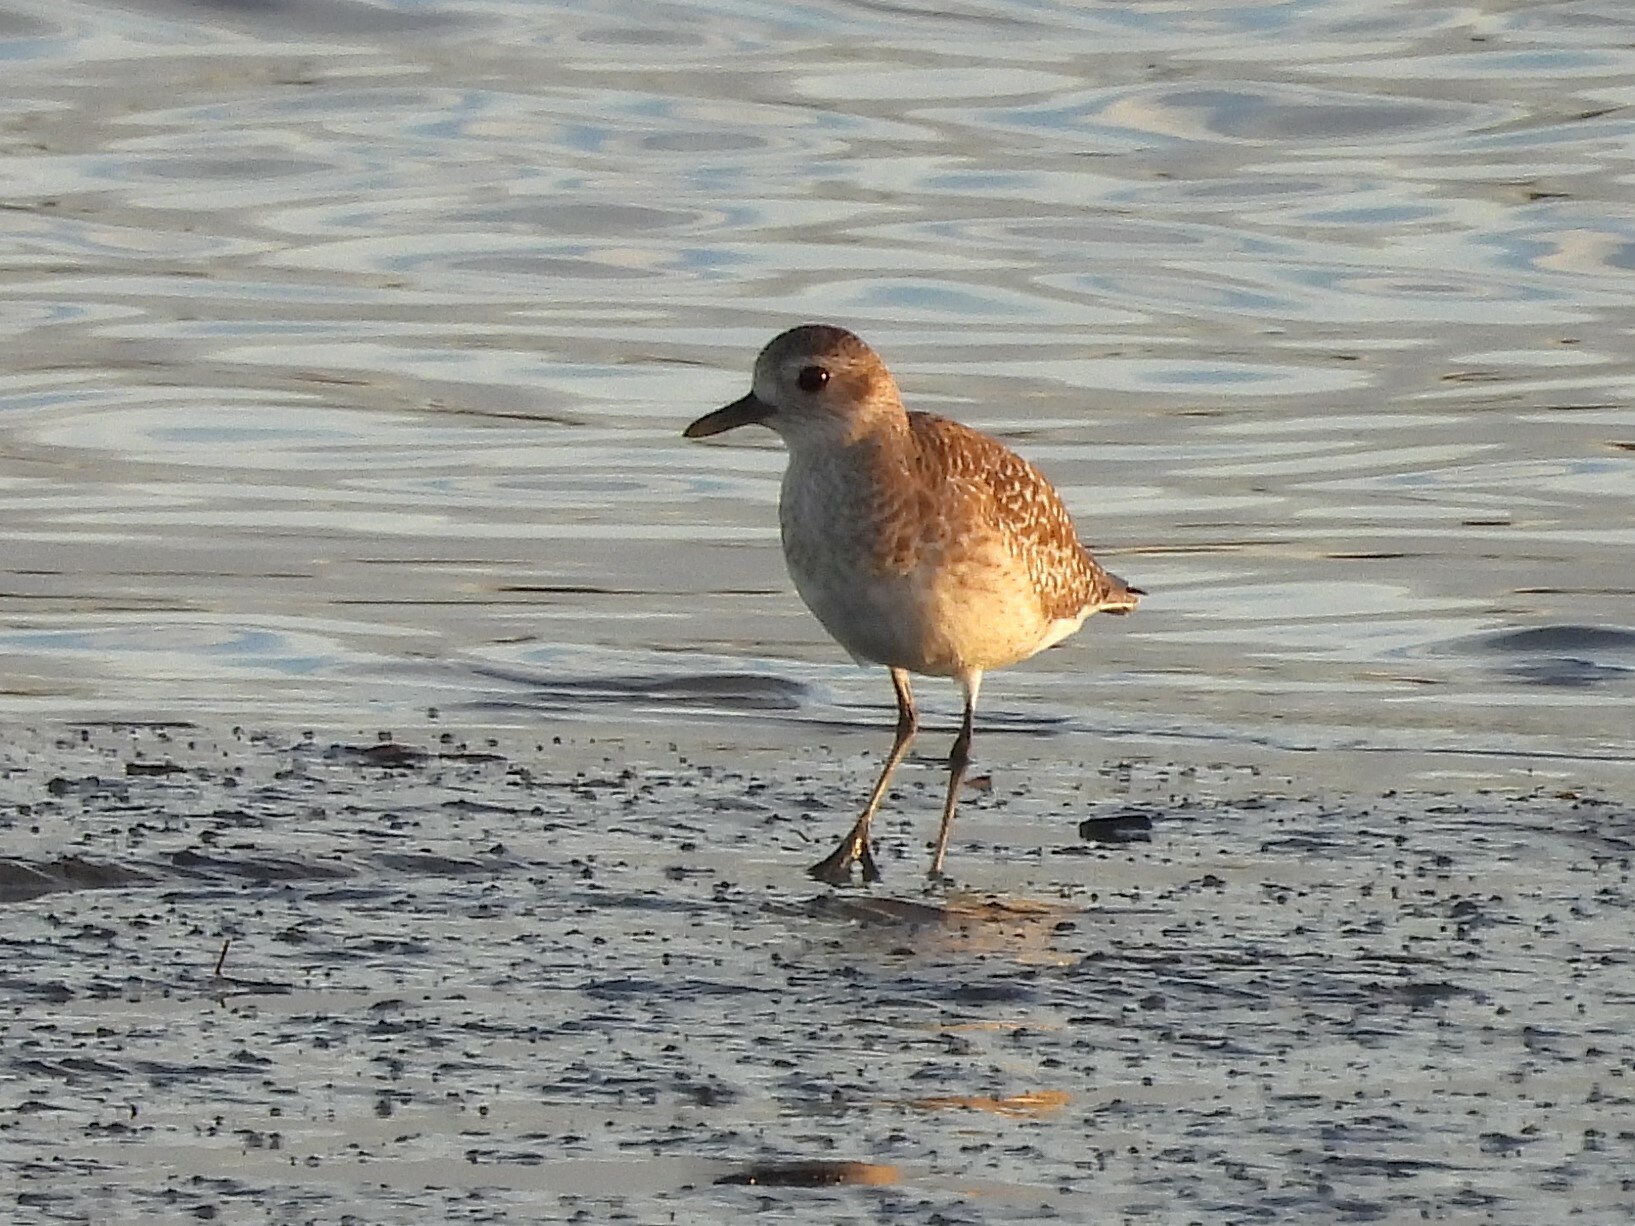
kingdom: Animalia
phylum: Chordata
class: Aves
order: Charadriiformes
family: Charadriidae
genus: Pluvialis
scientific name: Pluvialis squatarola
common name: Grey plover
